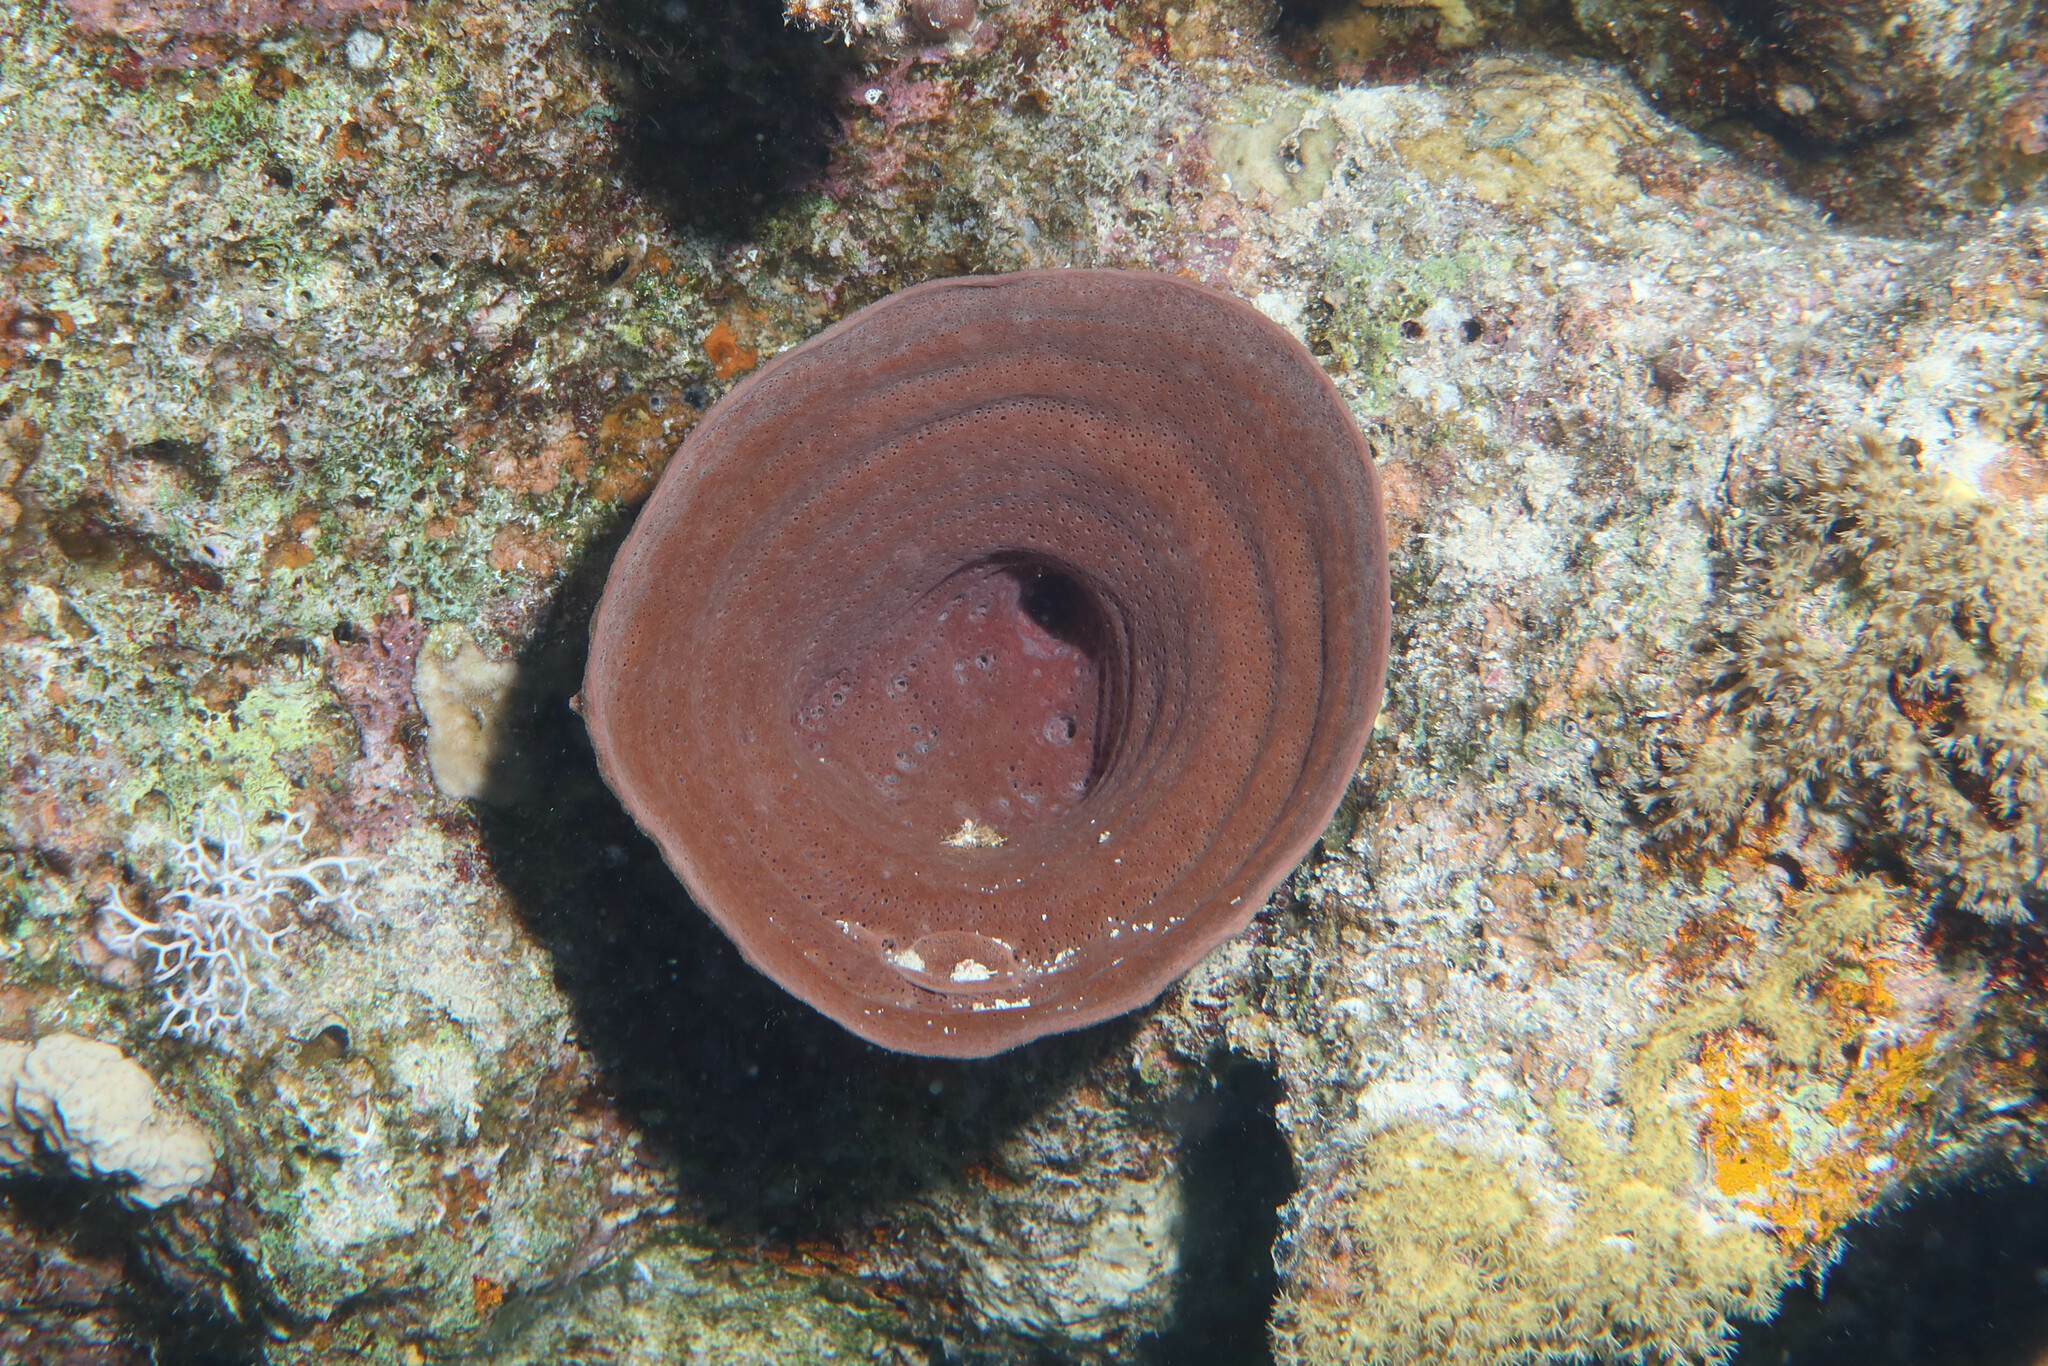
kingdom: Animalia
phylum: Porifera
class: Demospongiae
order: Haplosclerida
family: Callyspongiidae
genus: Callyspongia
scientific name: Callyspongia crassa
